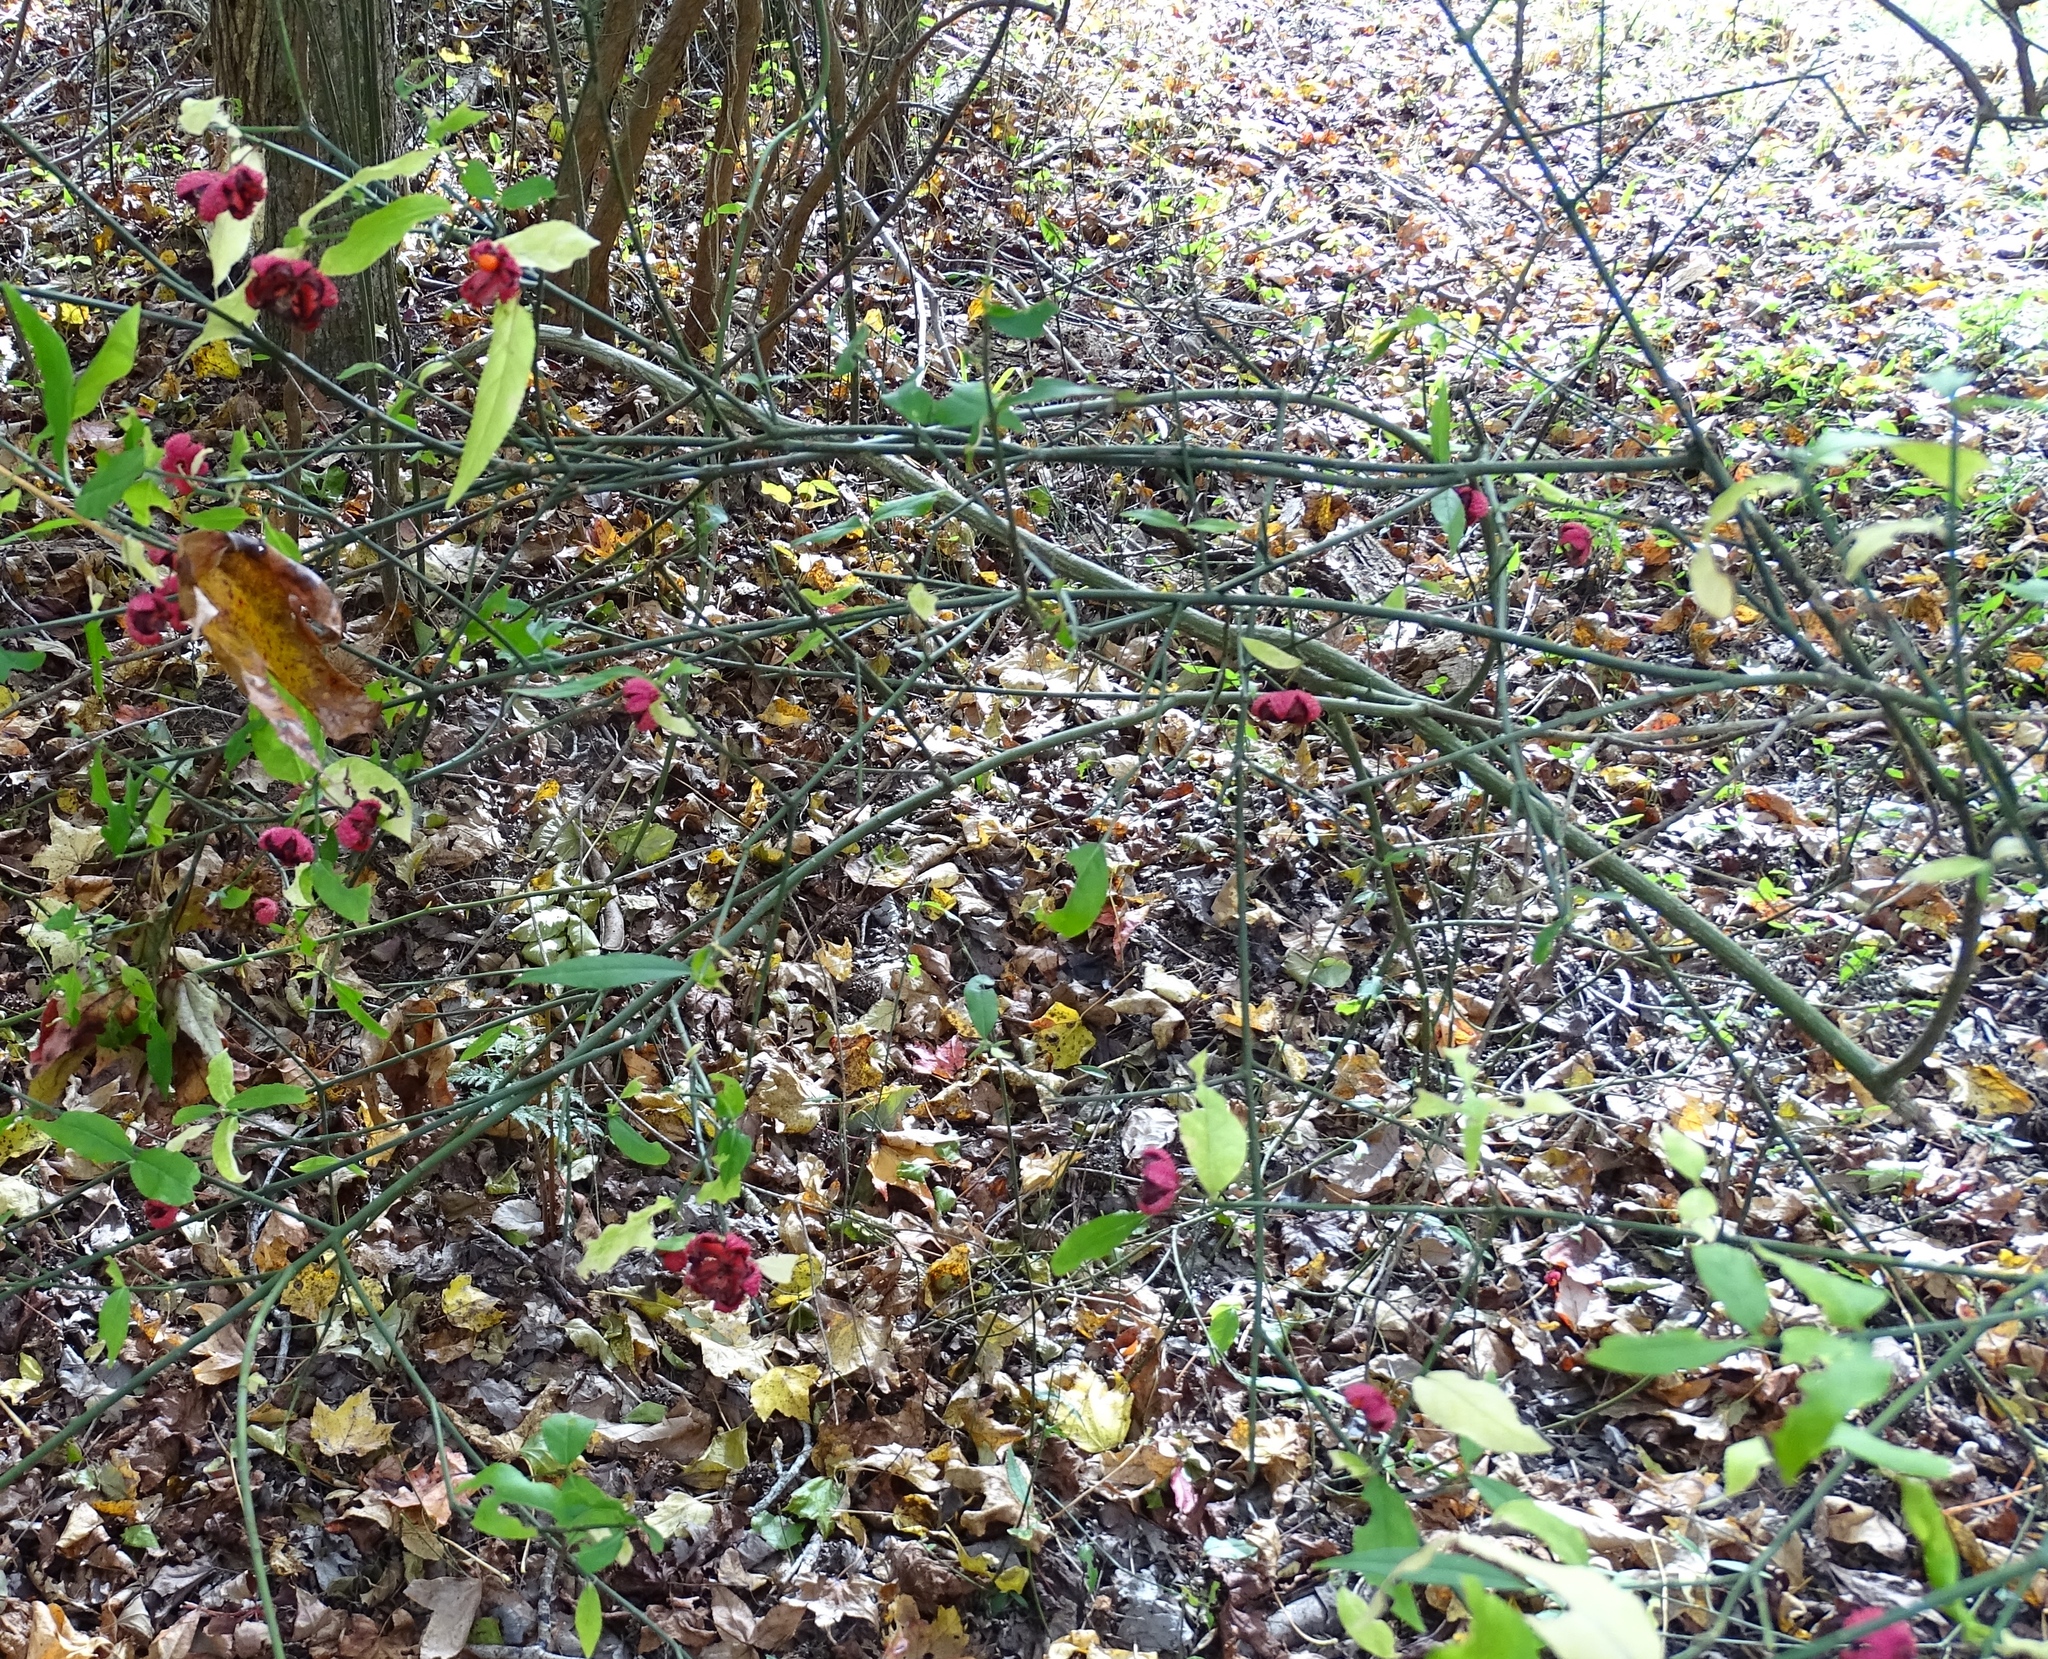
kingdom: Plantae
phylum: Tracheophyta
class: Magnoliopsida
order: Celastrales
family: Celastraceae
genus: Euonymus
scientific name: Euonymus americanus
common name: Bursting-heart
